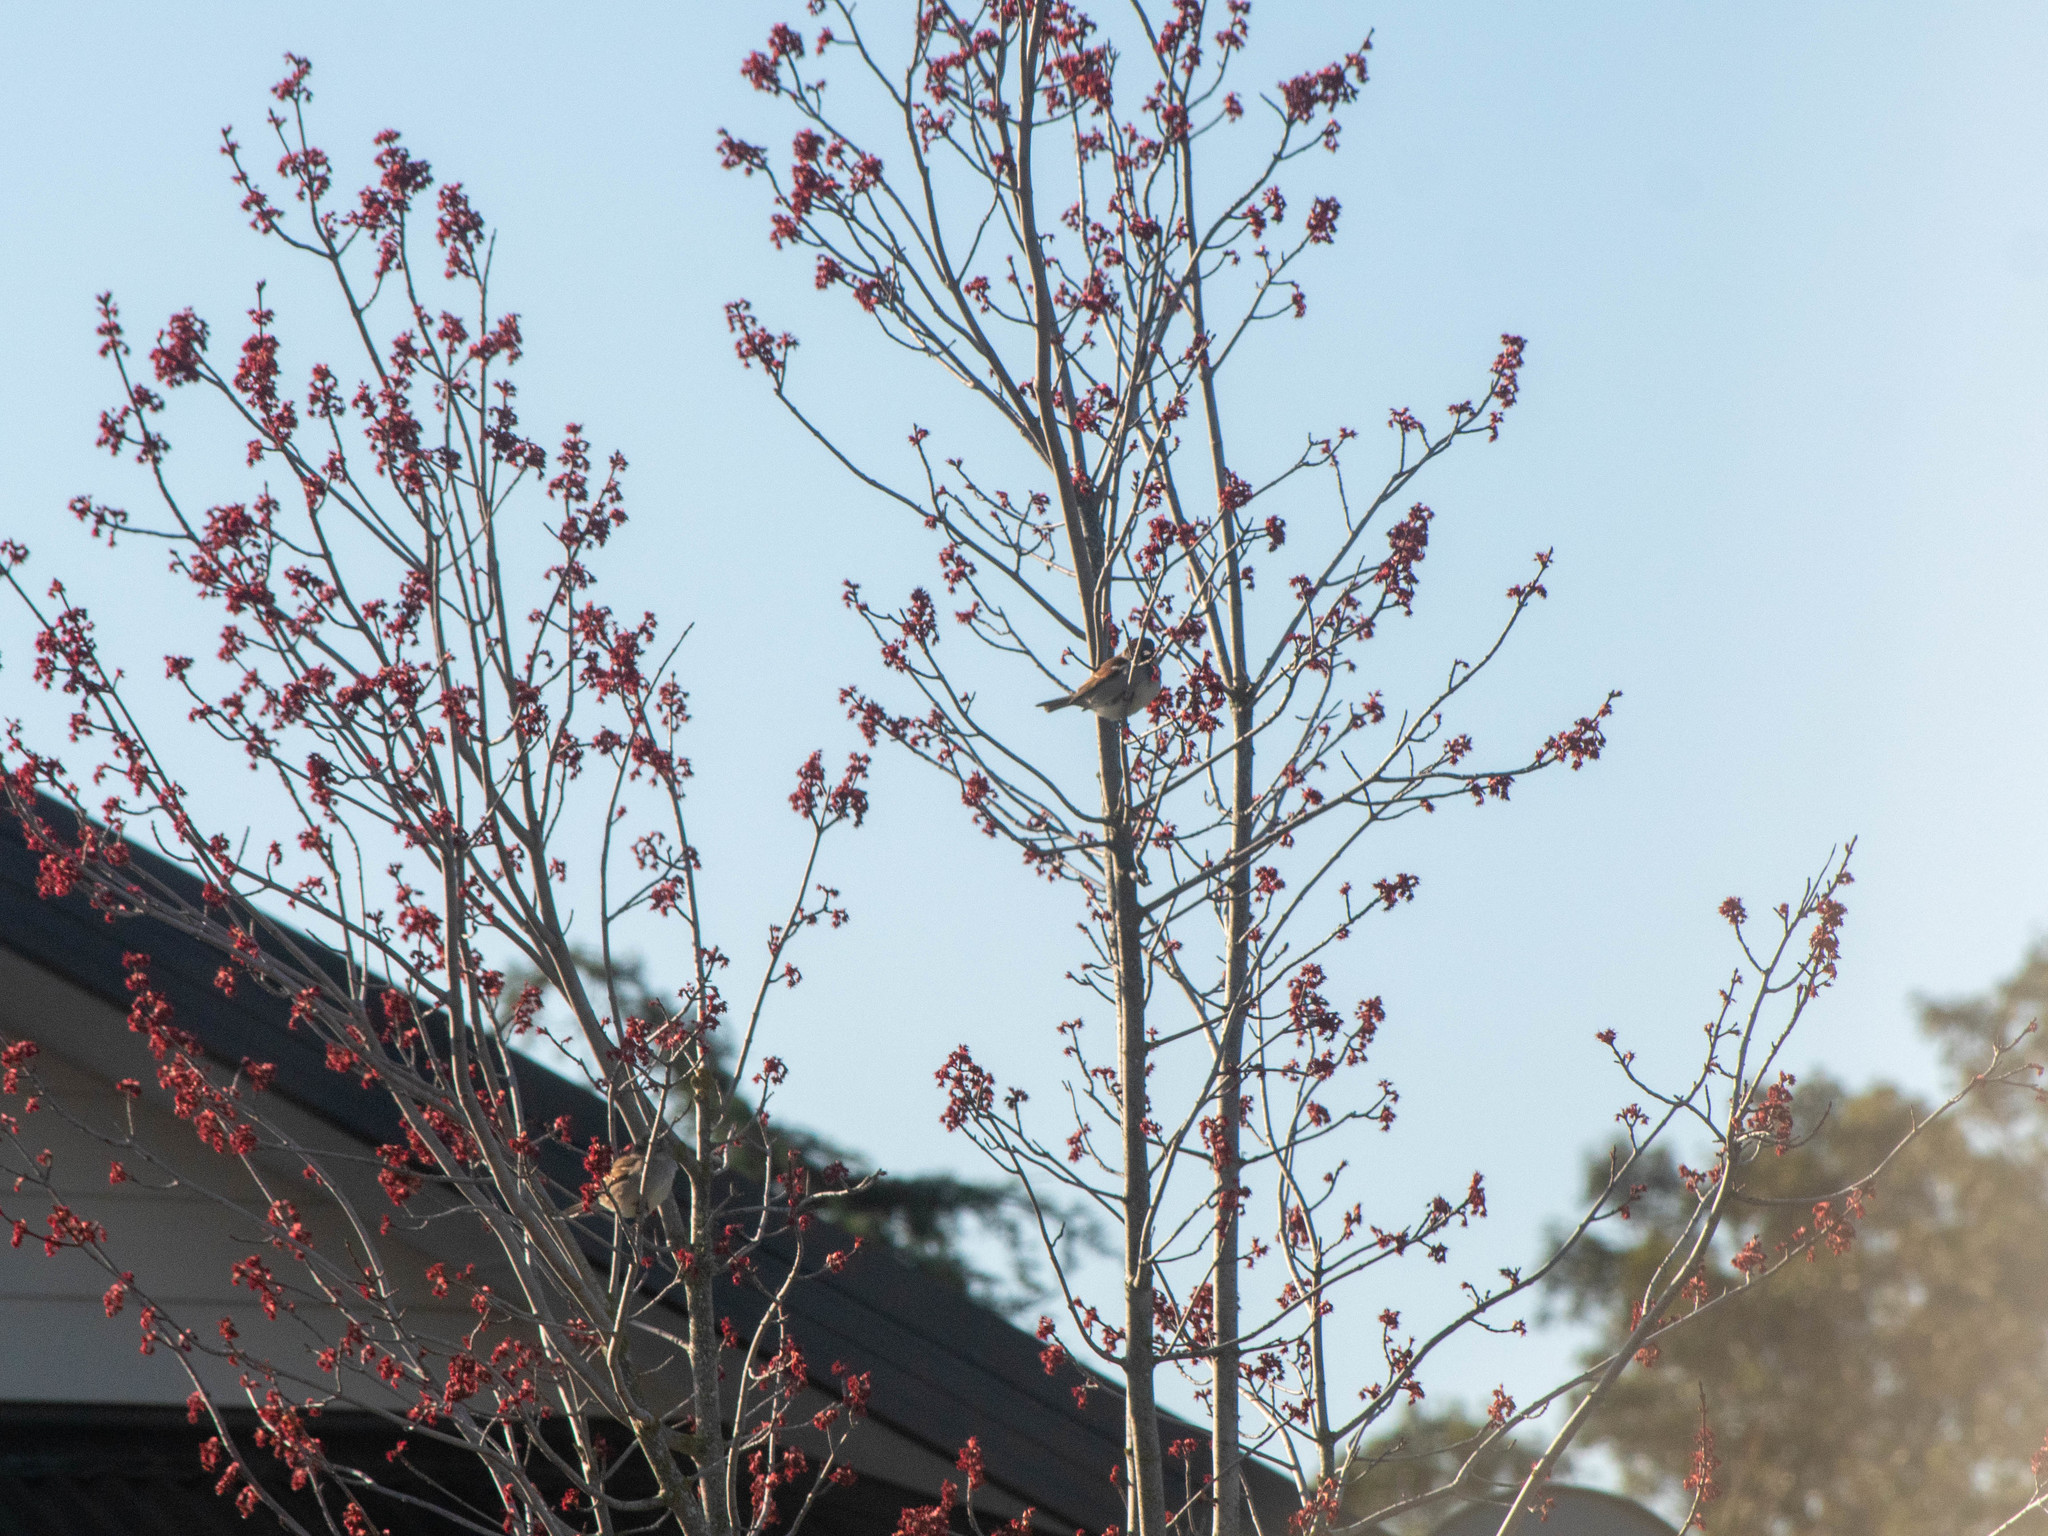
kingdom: Animalia
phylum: Chordata
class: Aves
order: Passeriformes
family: Passeridae
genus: Passer
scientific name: Passer domesticus
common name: House sparrow
